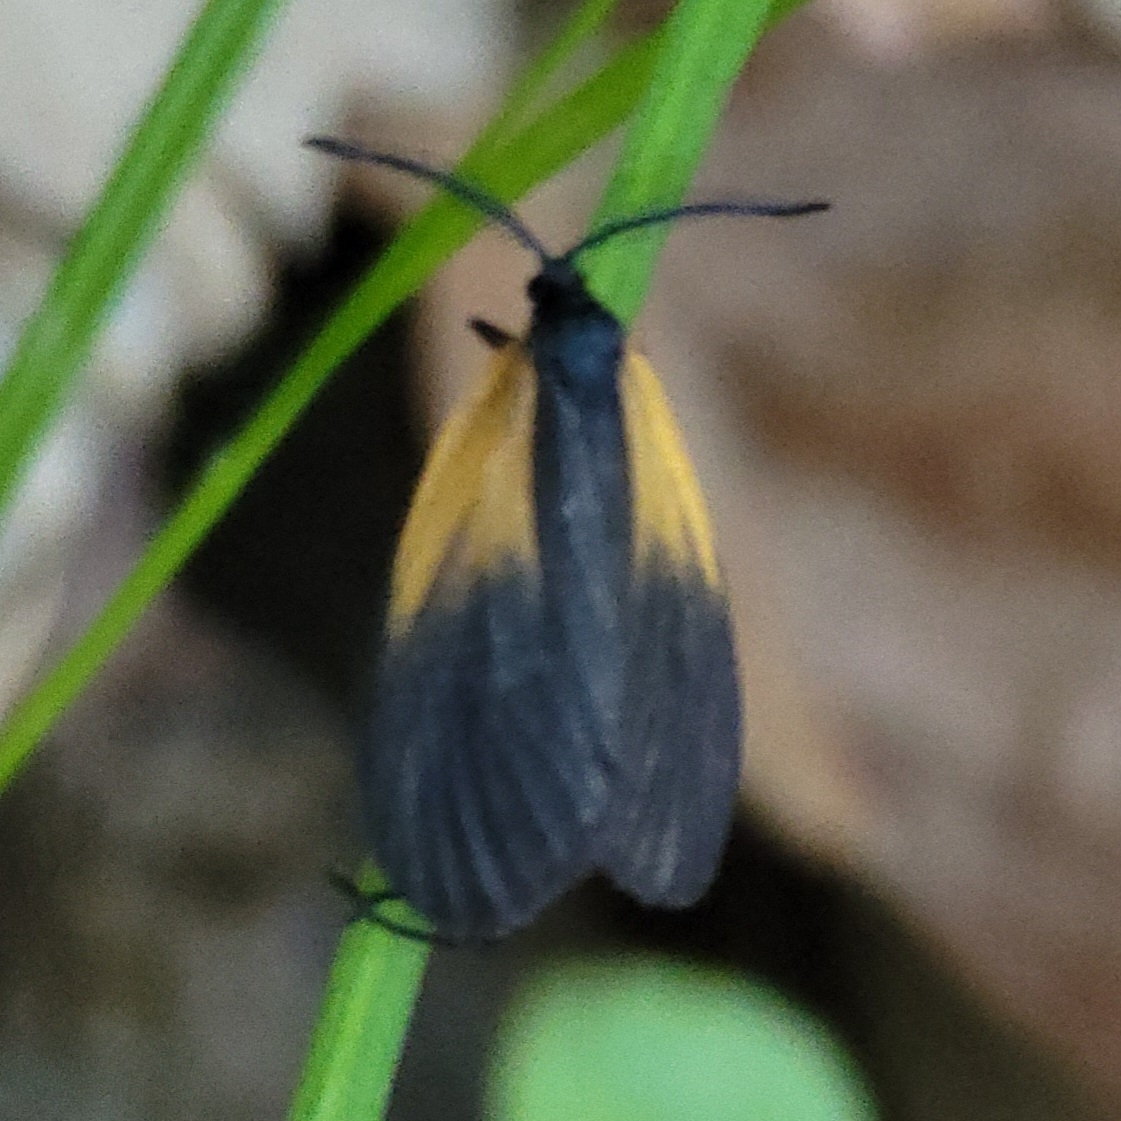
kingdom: Animalia
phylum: Arthropoda
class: Insecta
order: Lepidoptera
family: Zygaenidae
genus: Malthaca
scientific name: Malthaca dimidiata
